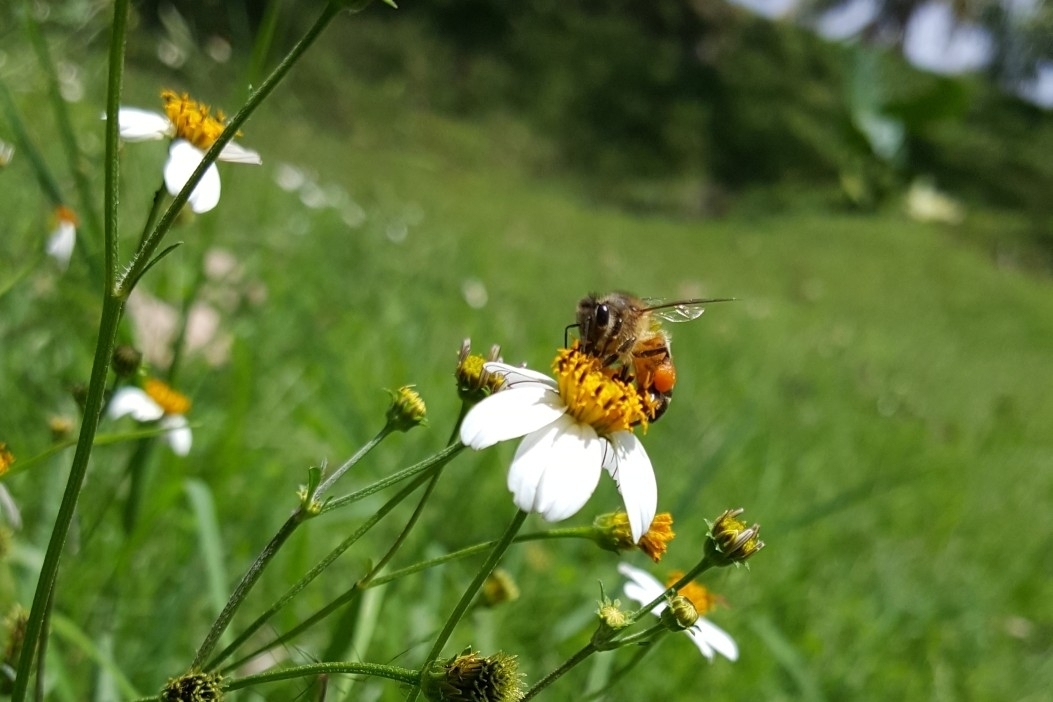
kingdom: Animalia
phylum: Arthropoda
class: Insecta
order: Hymenoptera
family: Apidae
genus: Apis
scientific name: Apis mellifera
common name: Honey bee
